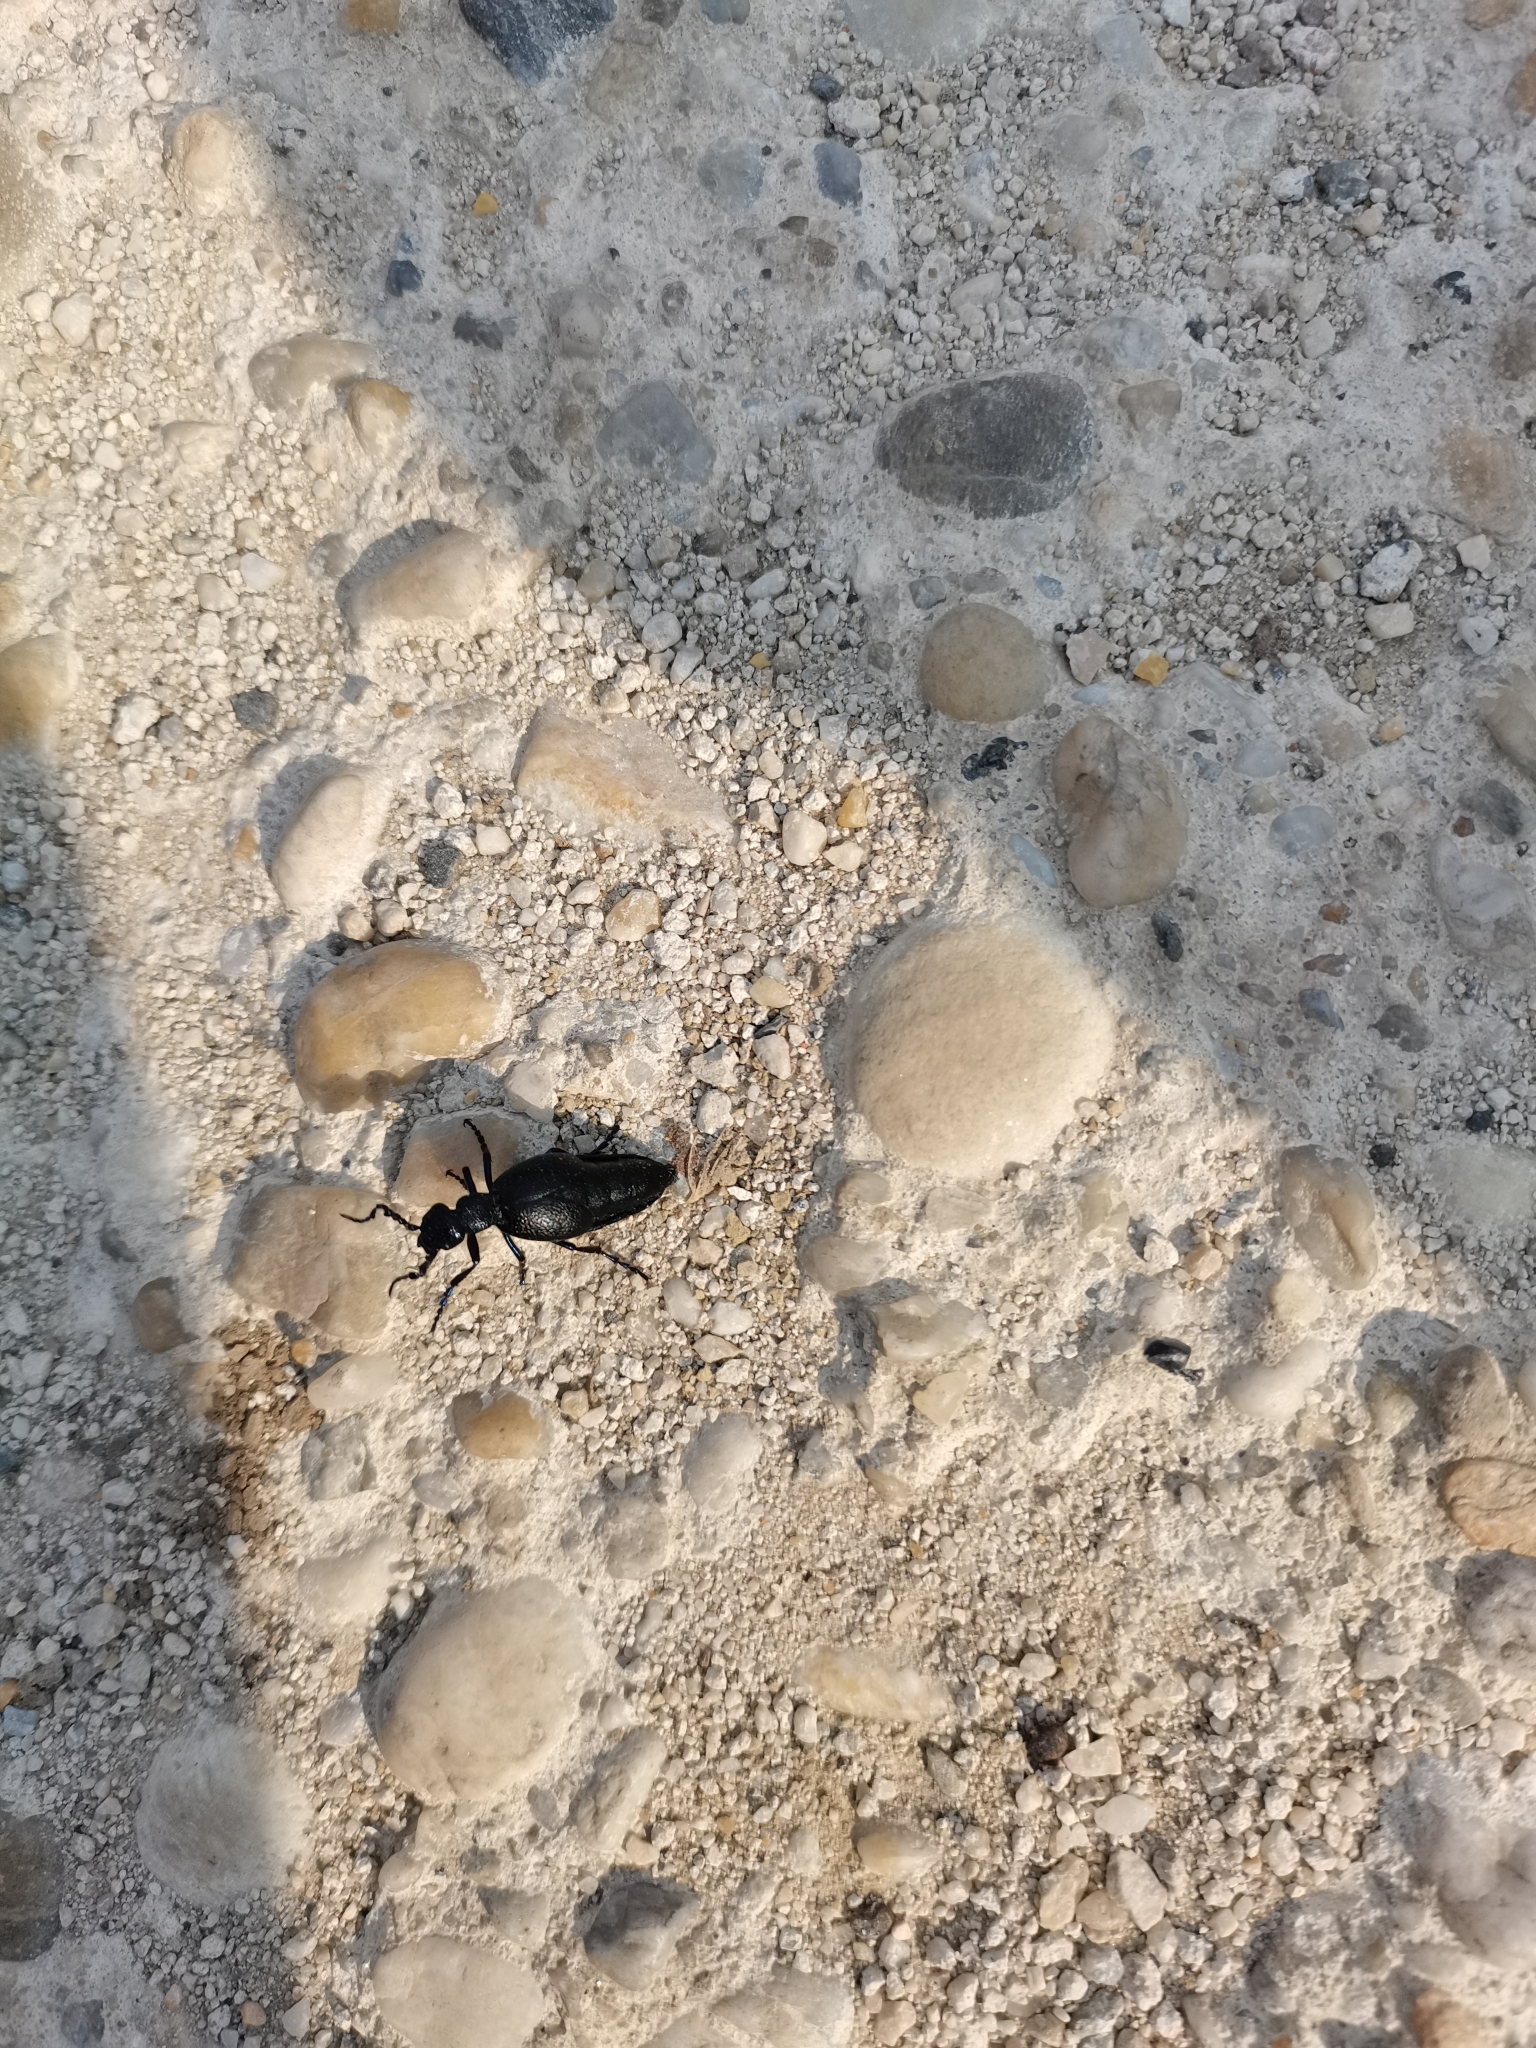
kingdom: Animalia
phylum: Arthropoda
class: Insecta
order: Coleoptera
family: Meloidae
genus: Meloe
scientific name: Meloe proscarabaeus
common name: Black oil-beetle
